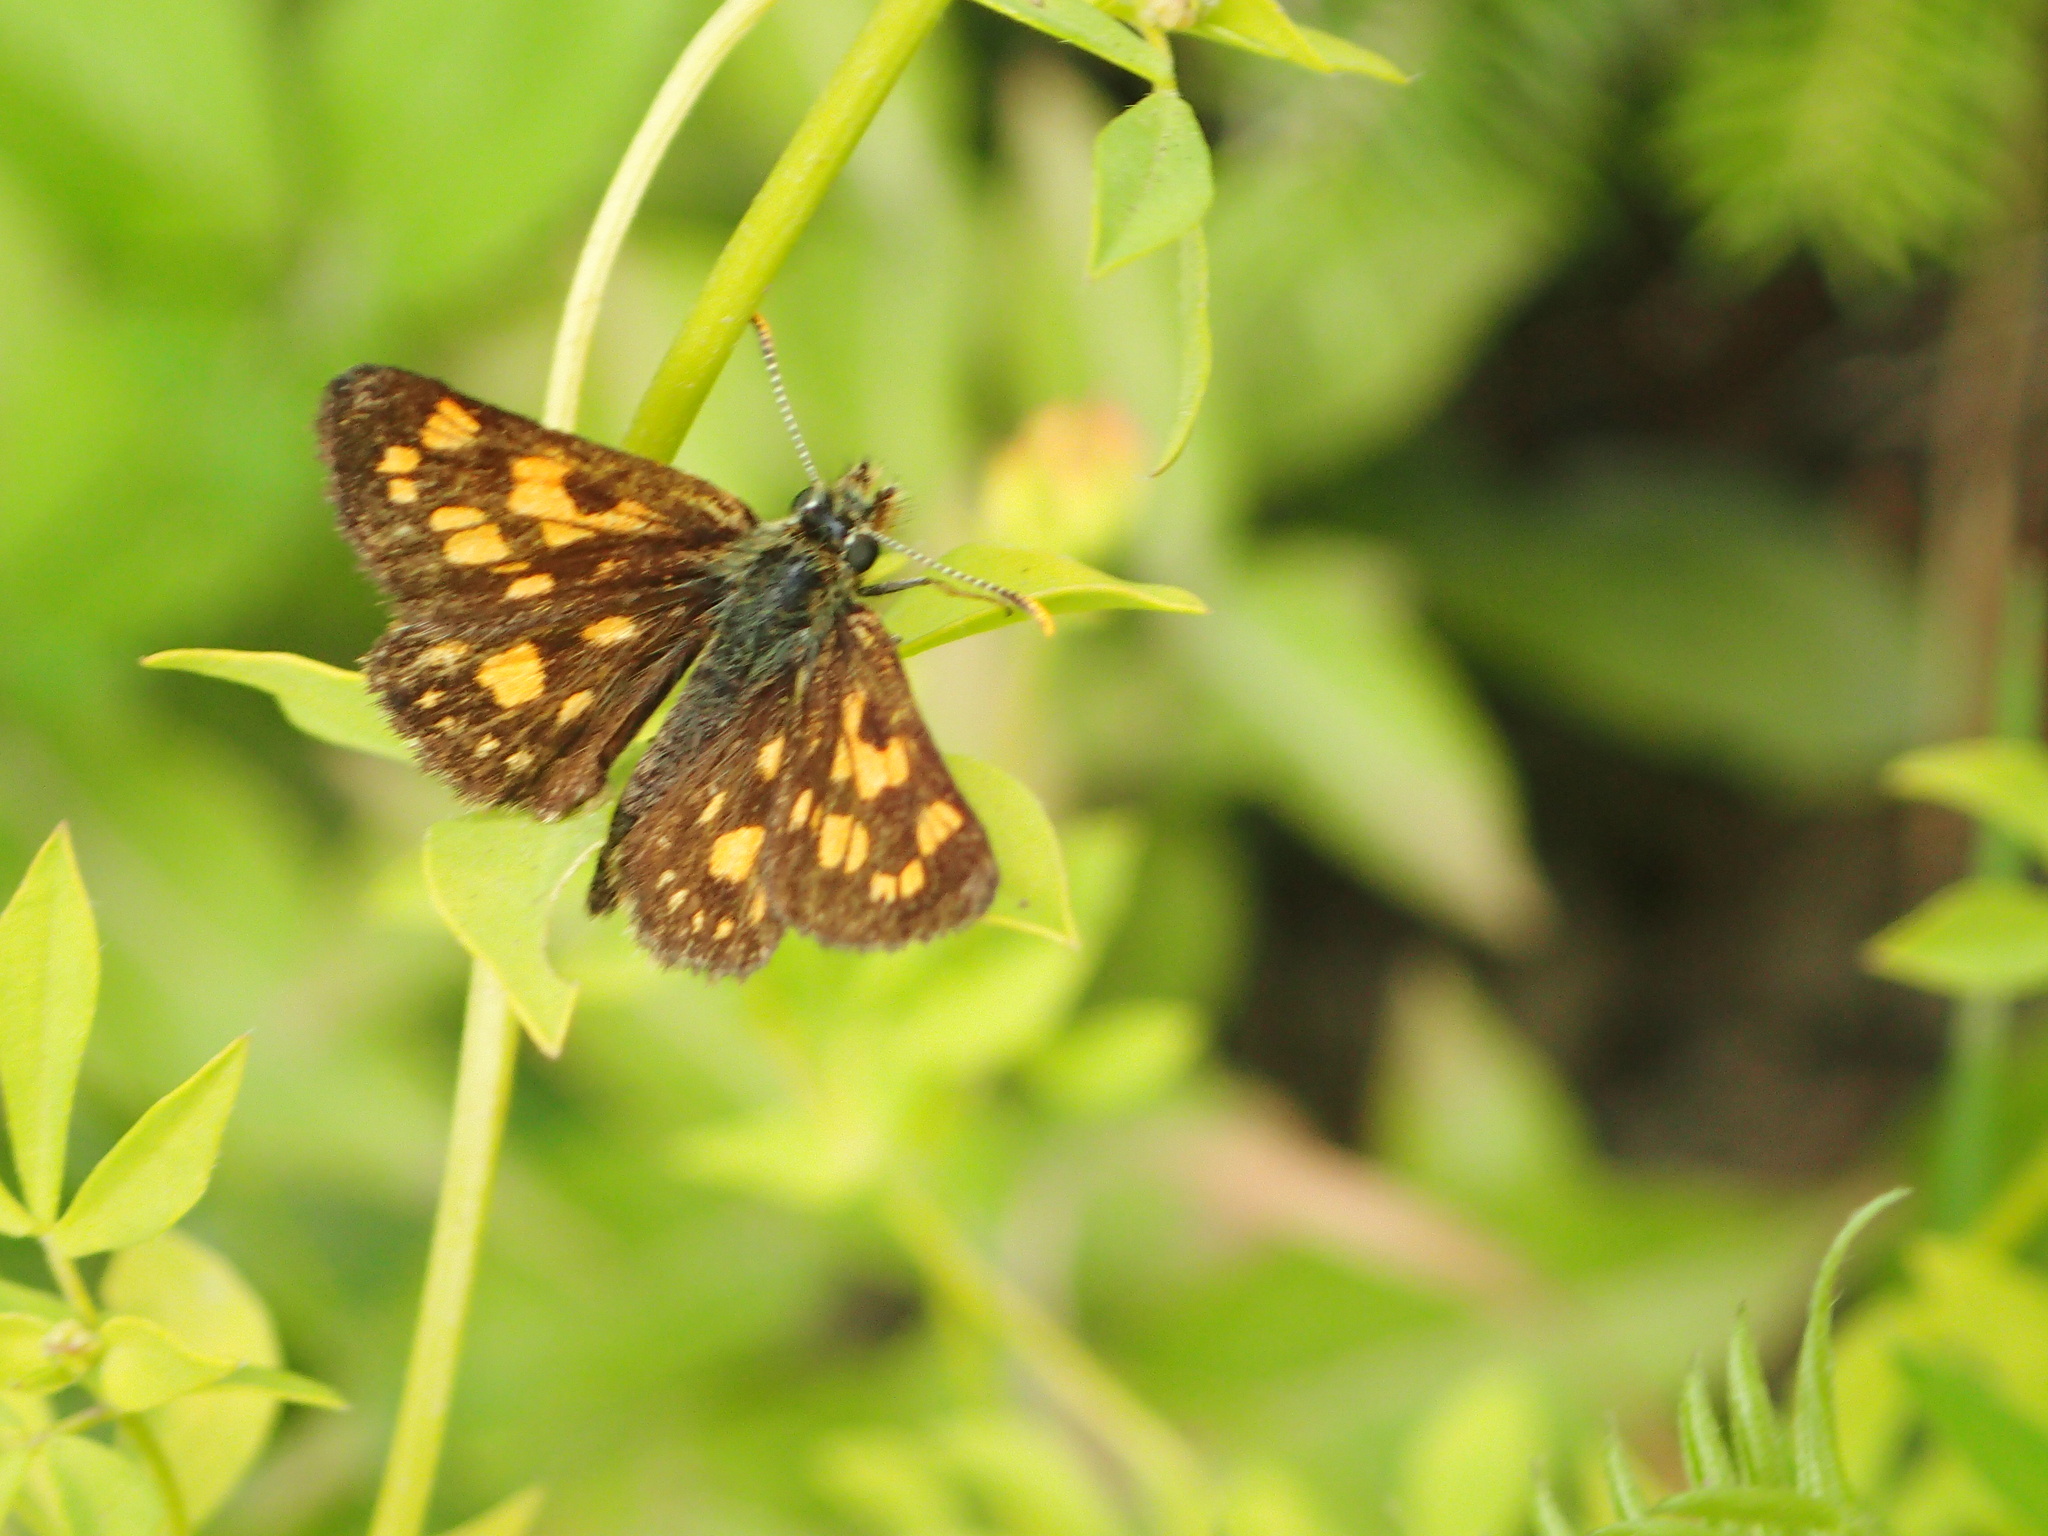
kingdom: Animalia
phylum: Arthropoda
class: Insecta
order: Lepidoptera
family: Hesperiidae
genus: Carterocephalus
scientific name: Carterocephalus mandan
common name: Arctic skipperling
